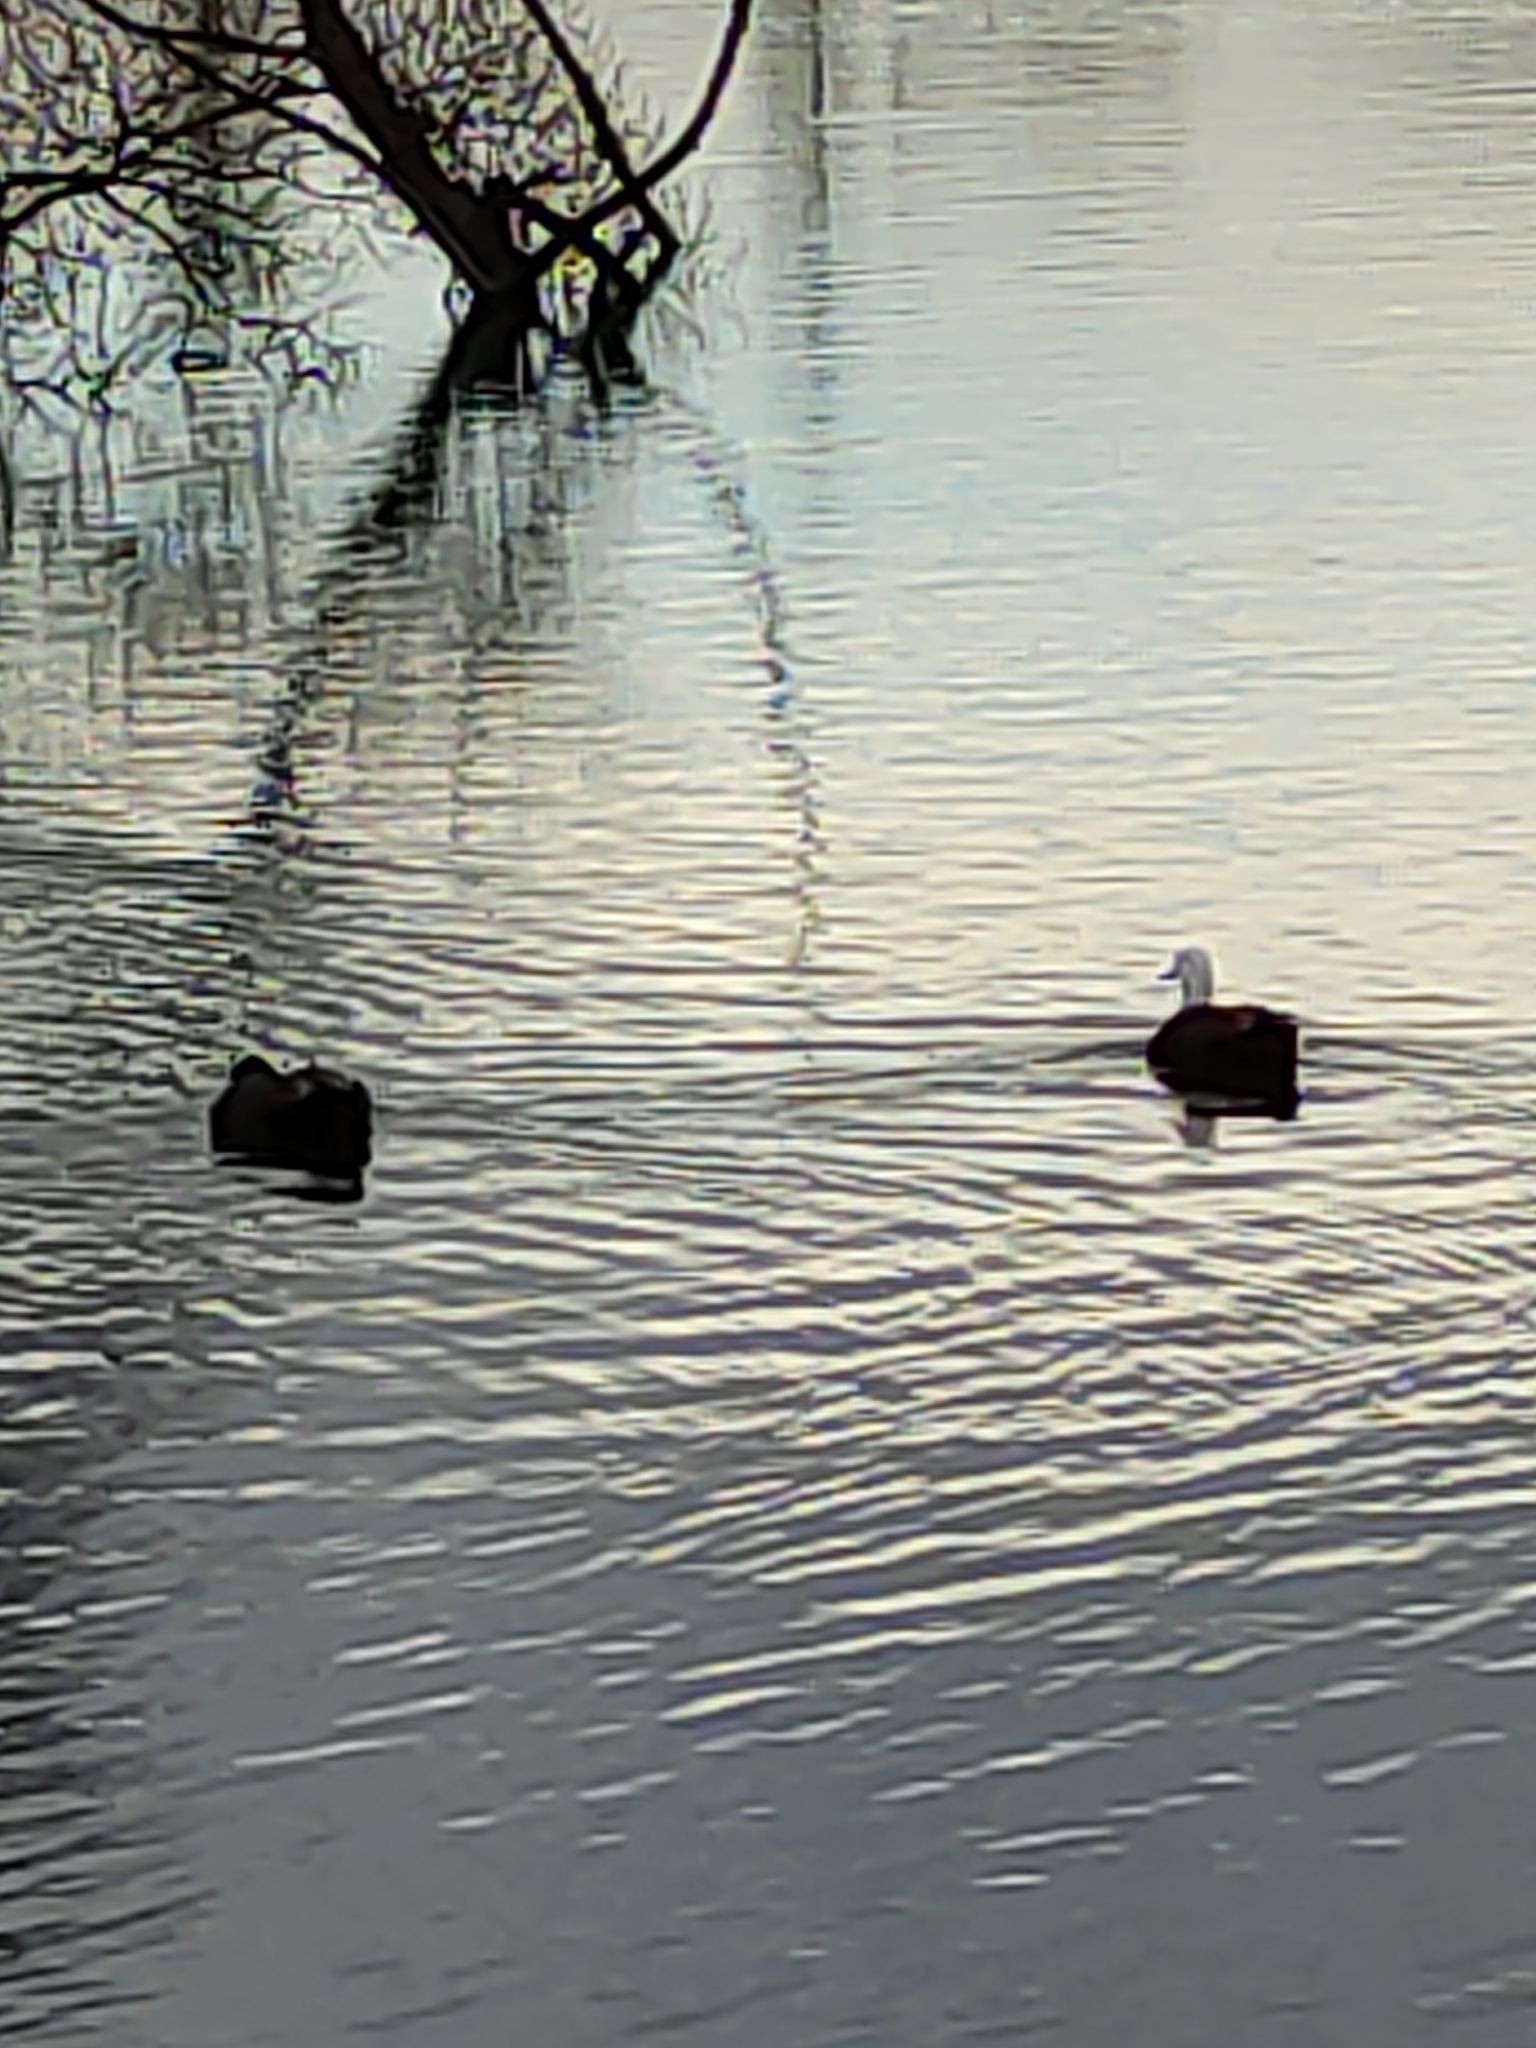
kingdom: Animalia
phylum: Chordata
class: Aves
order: Anseriformes
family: Anatidae
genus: Tadorna
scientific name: Tadorna variegata
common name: Paradise shelduck
